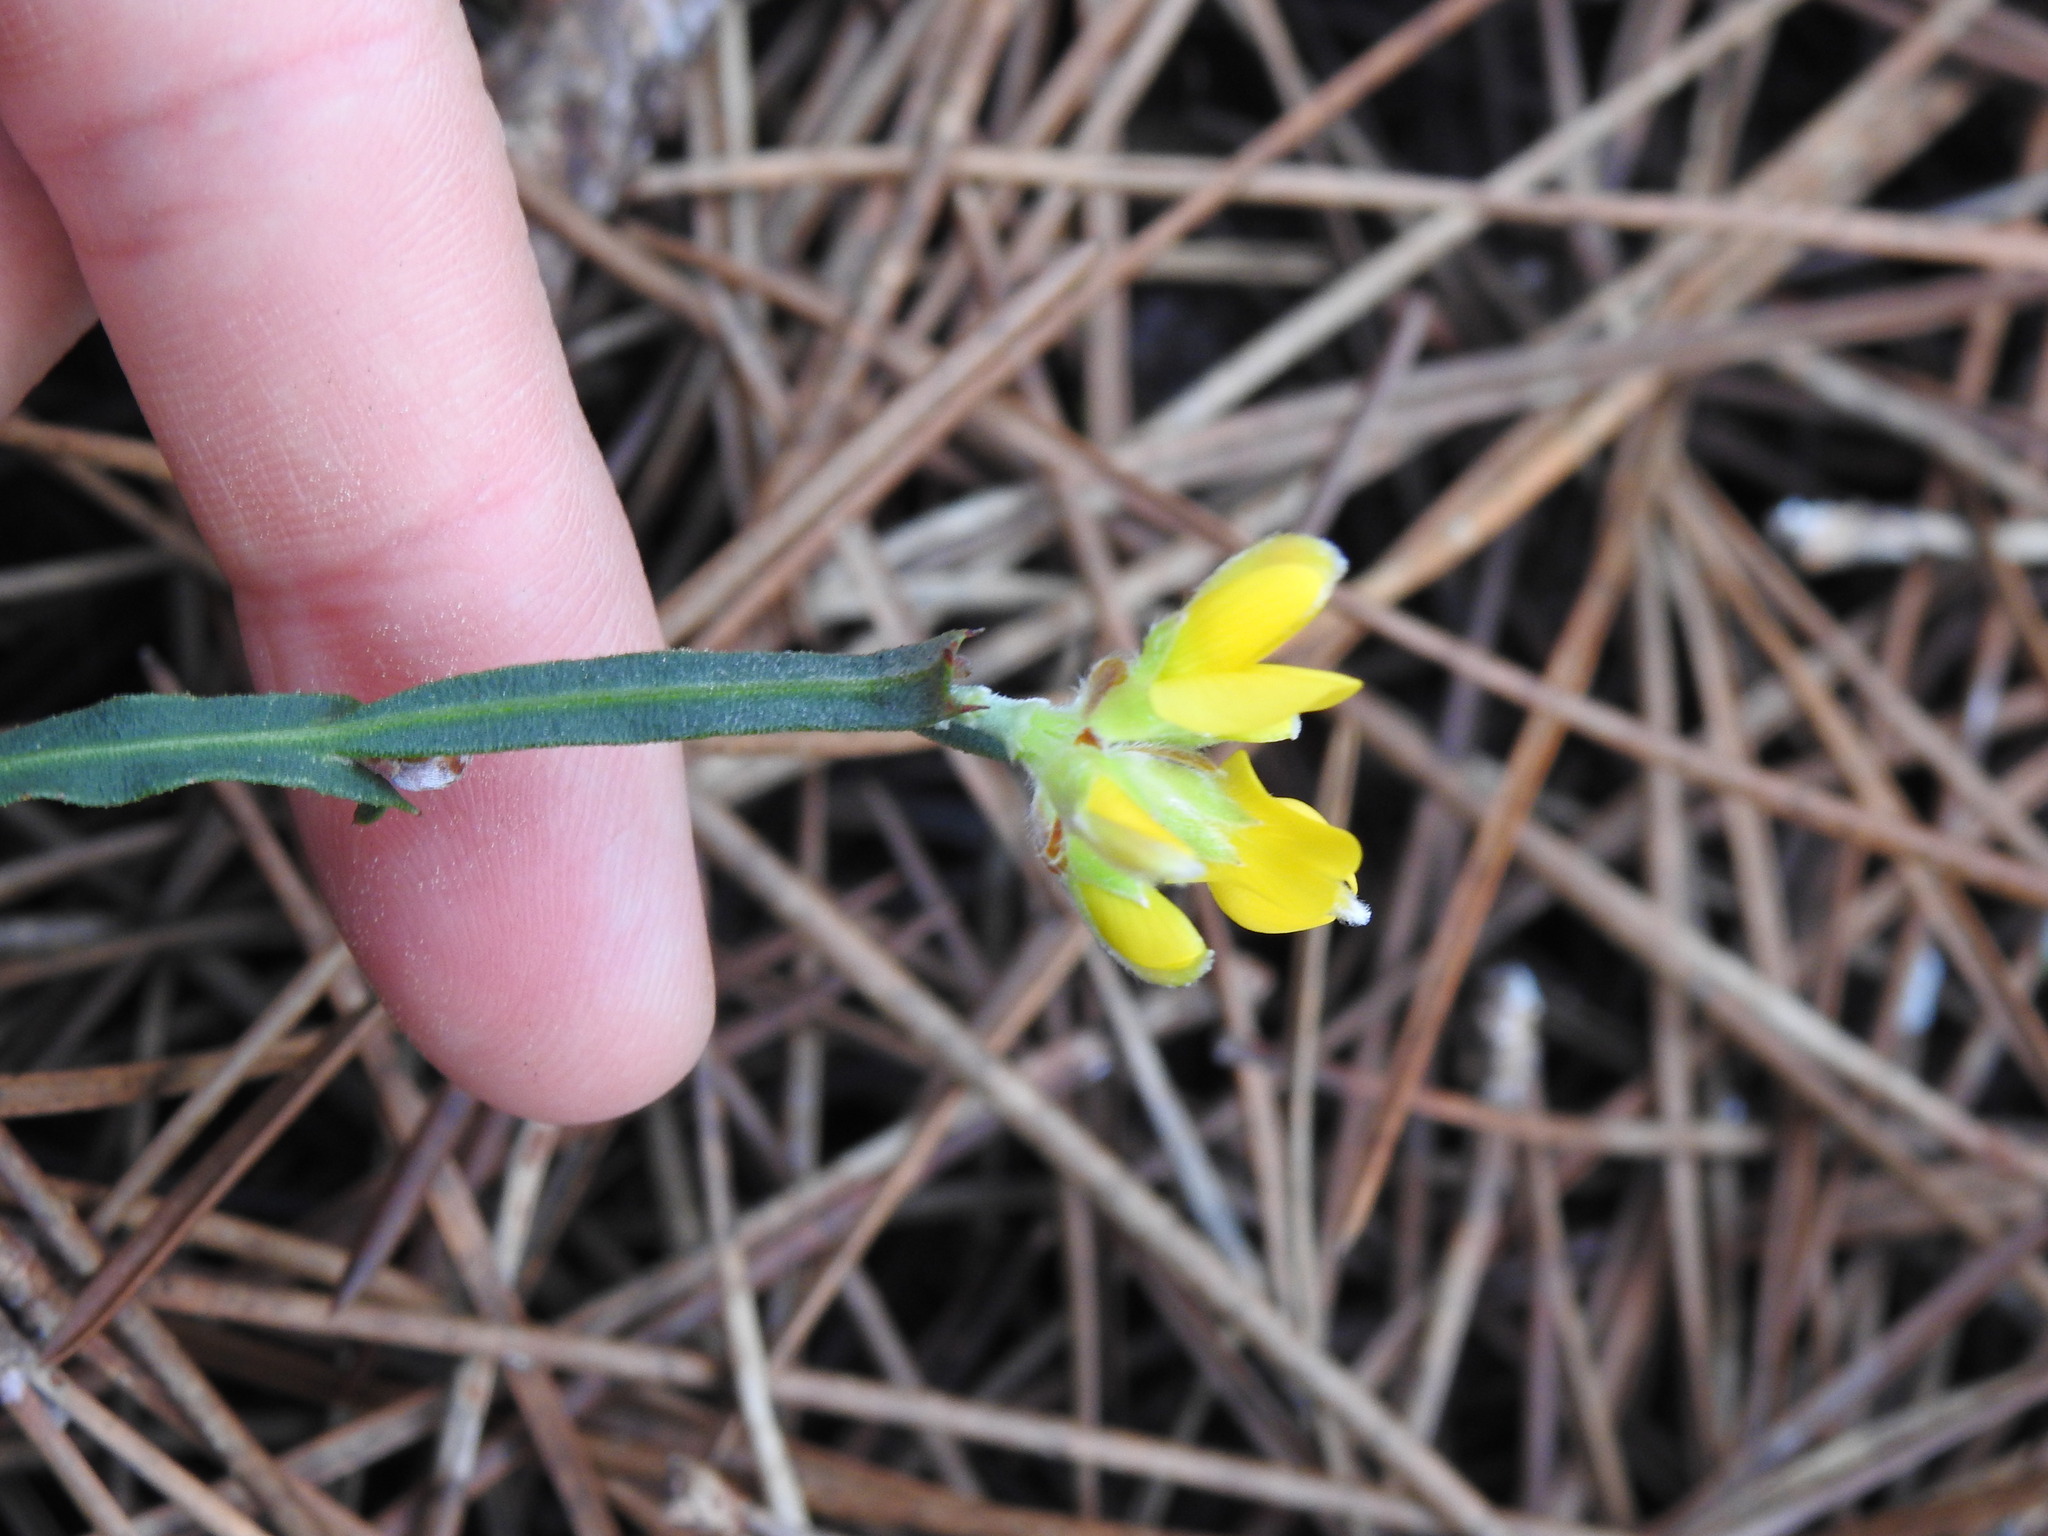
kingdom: Plantae
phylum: Tracheophyta
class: Magnoliopsida
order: Fabales
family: Fabaceae
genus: Genista
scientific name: Genista tridentata
